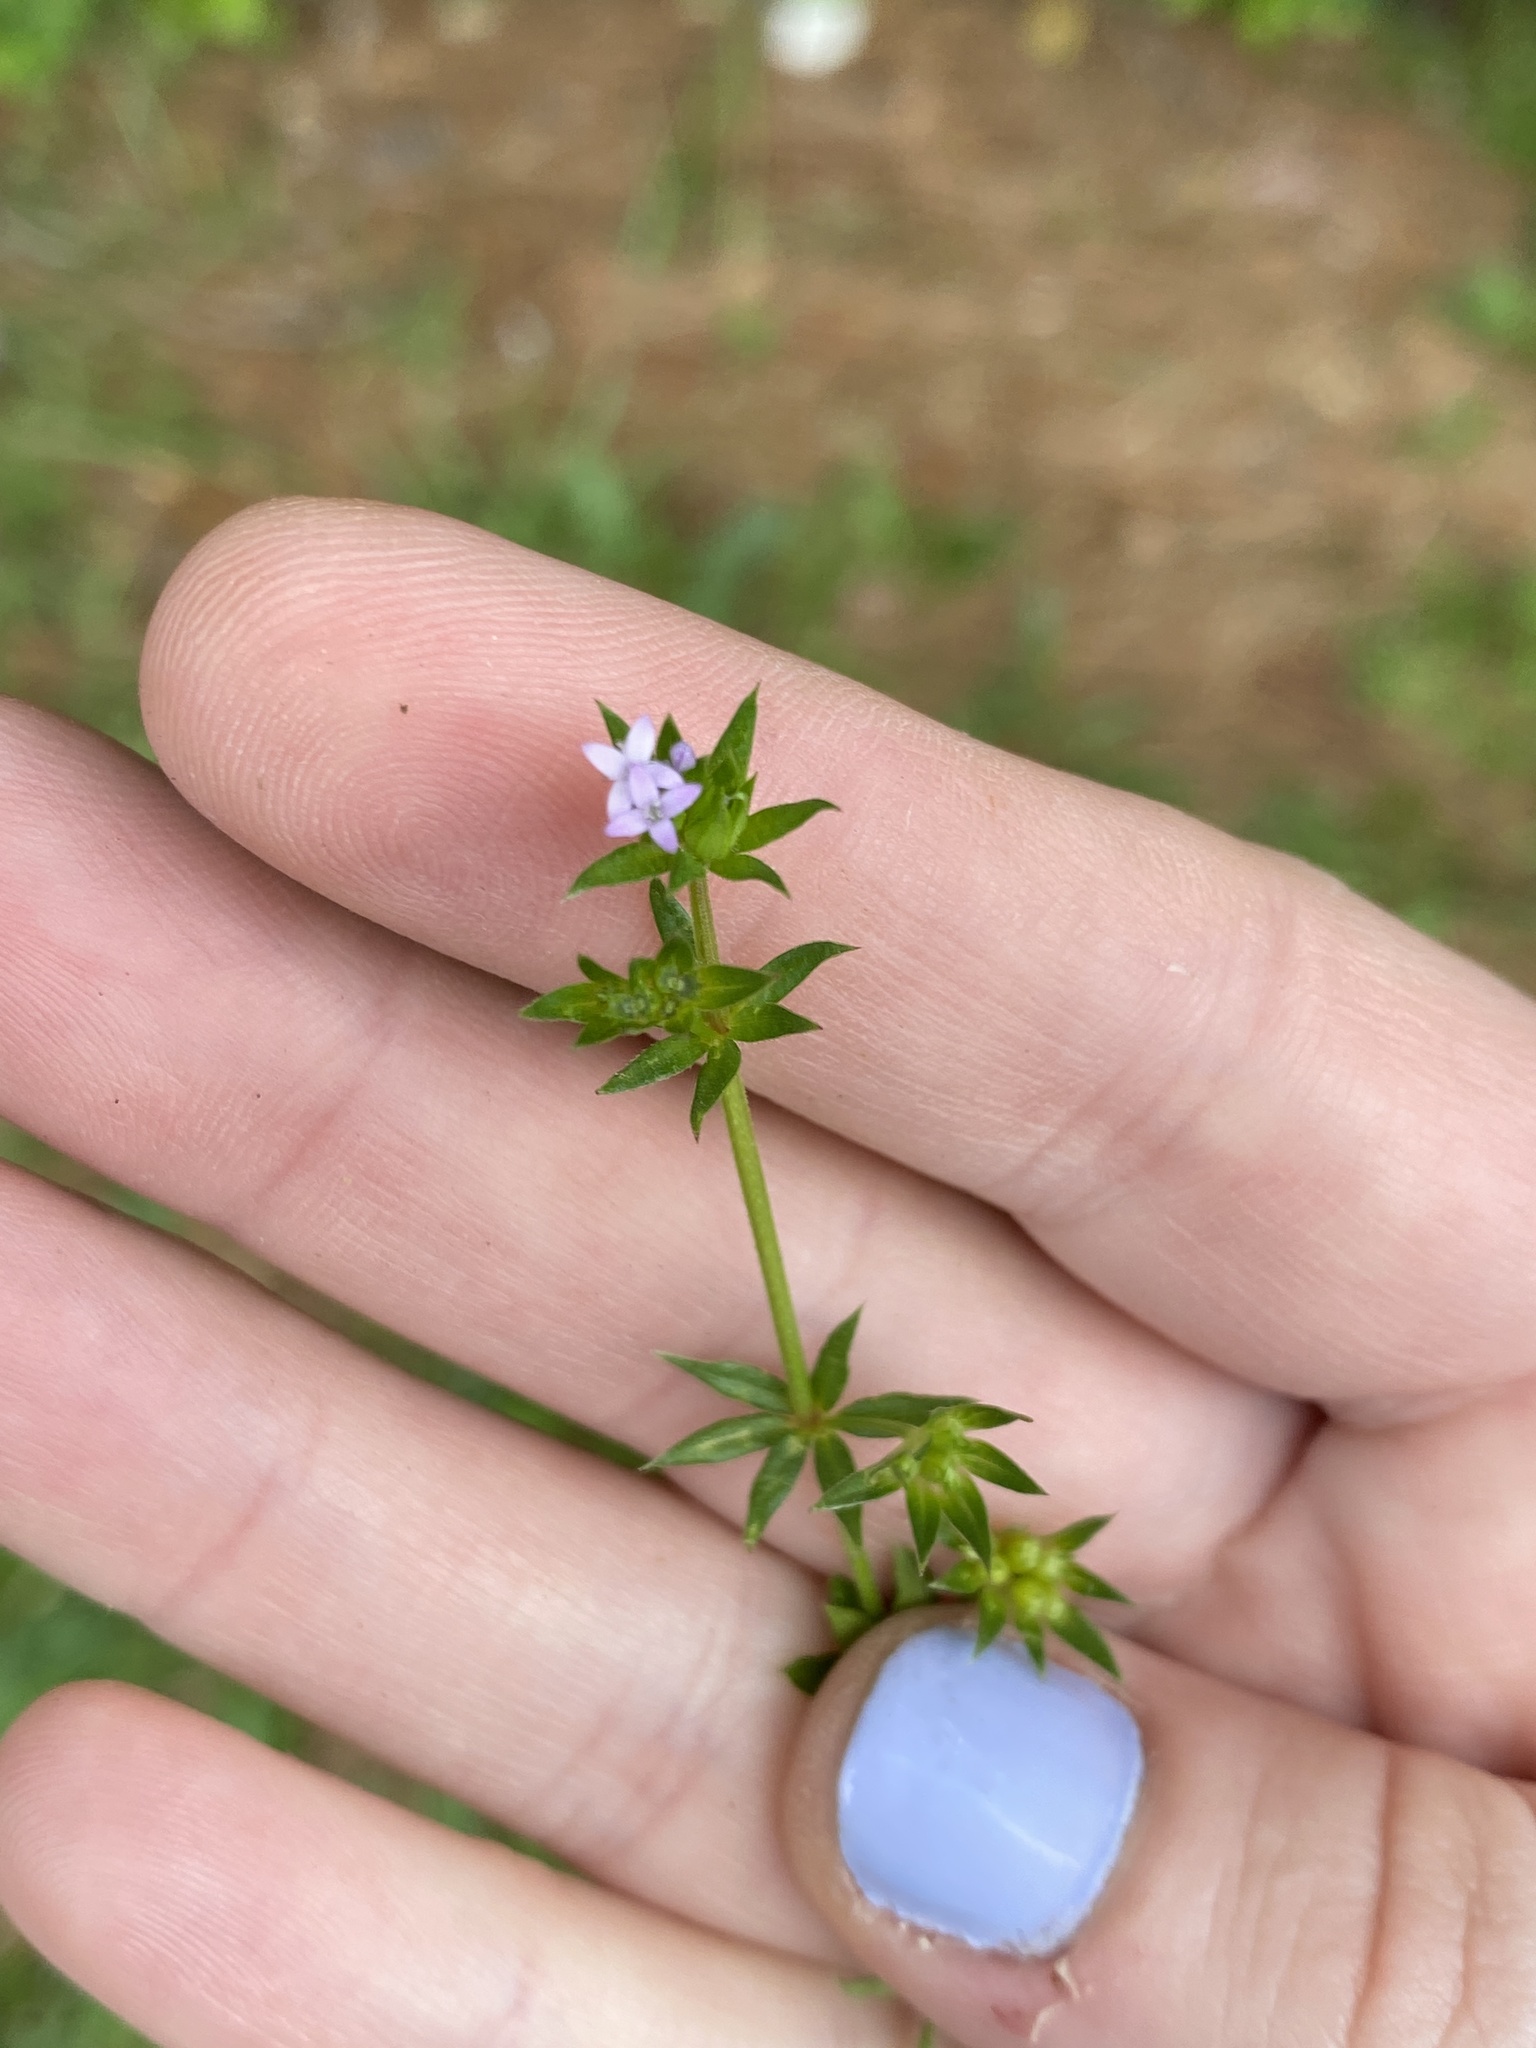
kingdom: Plantae
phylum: Tracheophyta
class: Magnoliopsida
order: Gentianales
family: Rubiaceae
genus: Sherardia
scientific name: Sherardia arvensis
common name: Field madder
